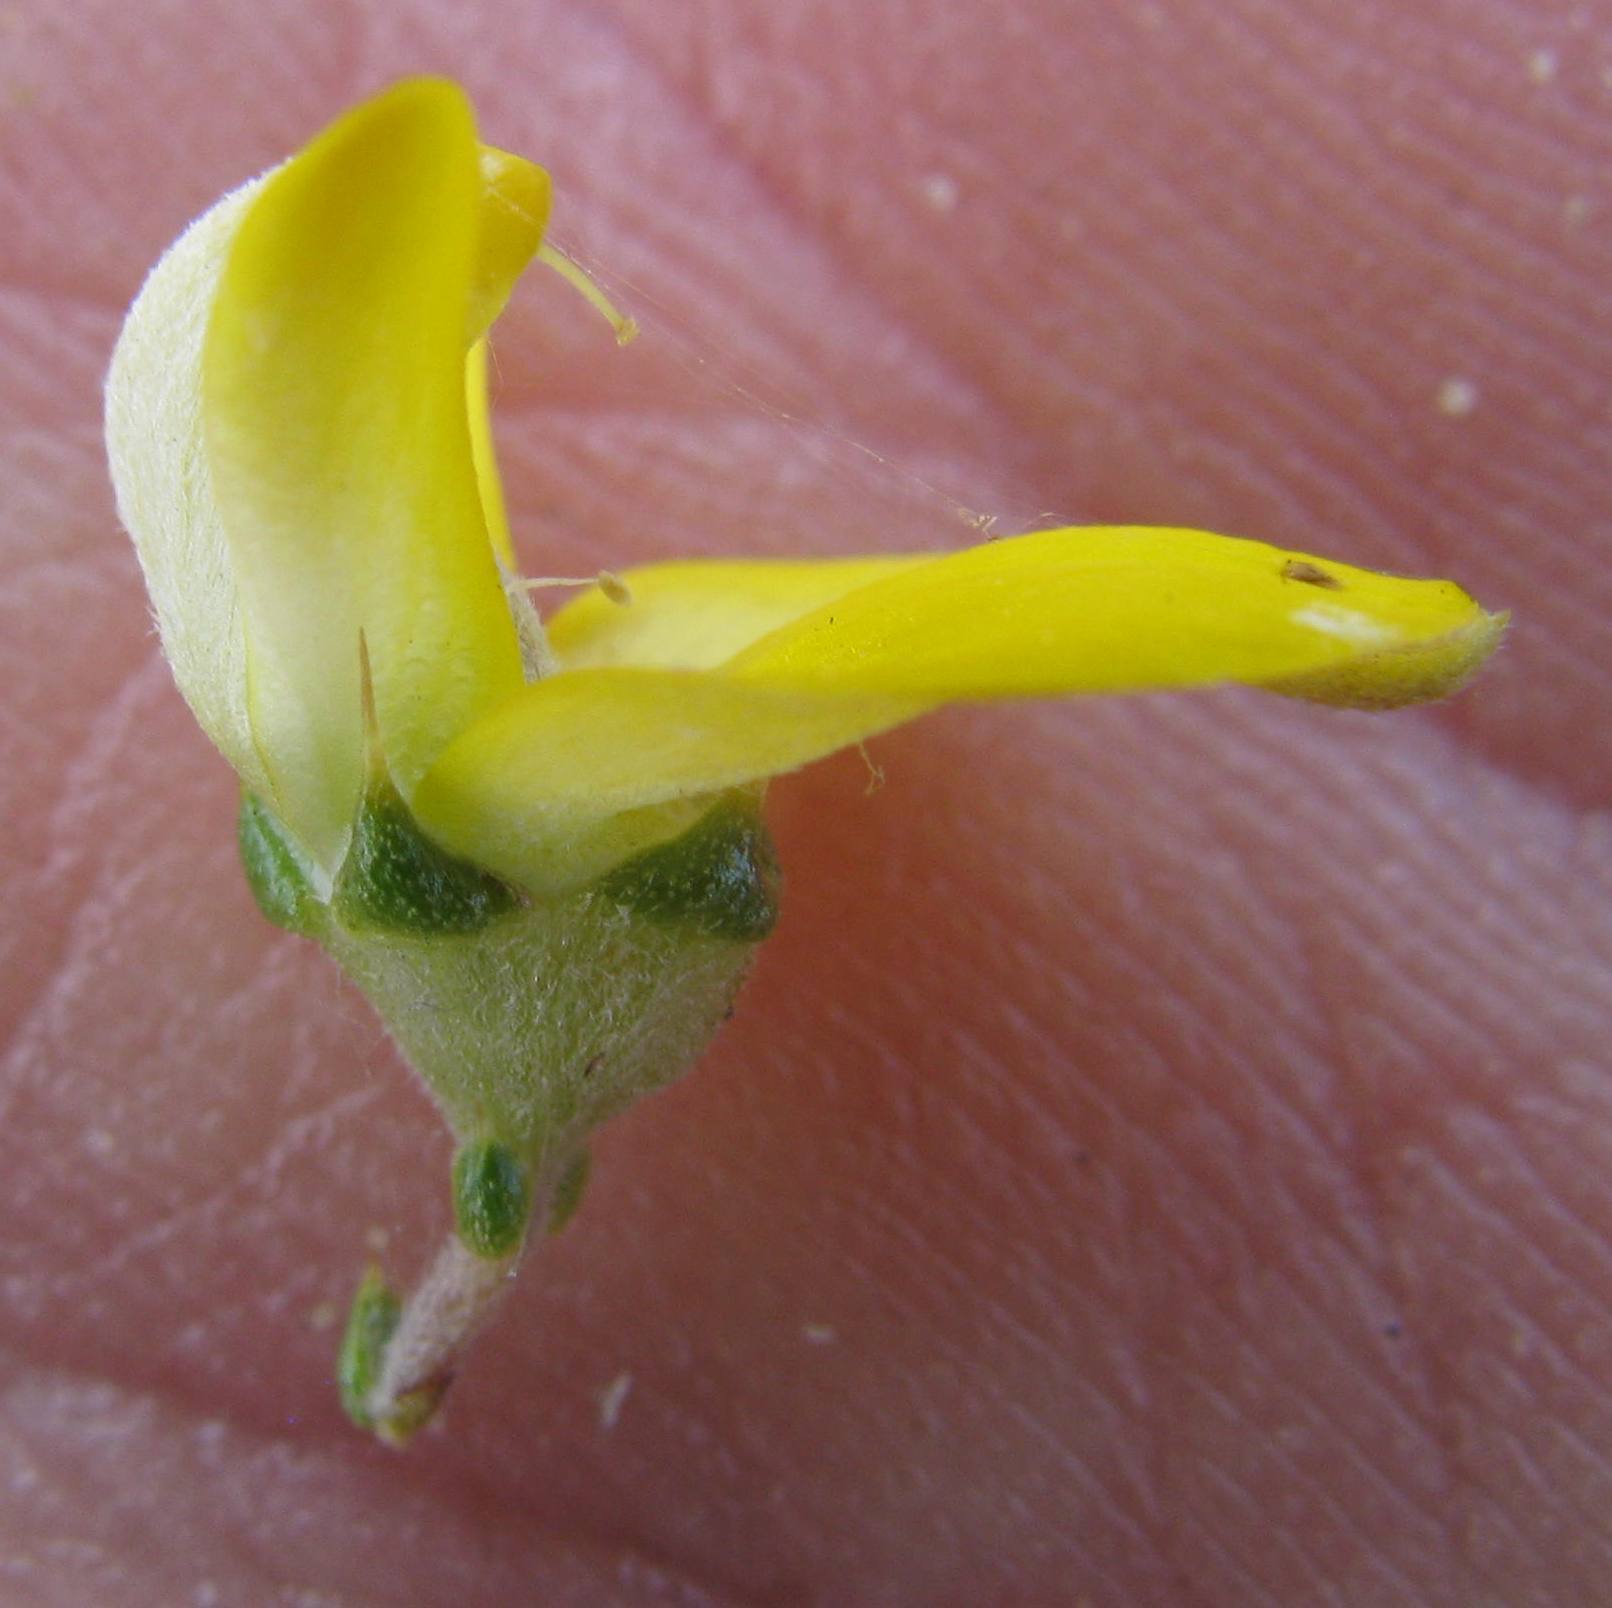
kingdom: Plantae
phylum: Tracheophyta
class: Magnoliopsida
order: Fabales
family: Fabaceae
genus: Aspalathus
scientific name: Aspalathus tulbaghensis
